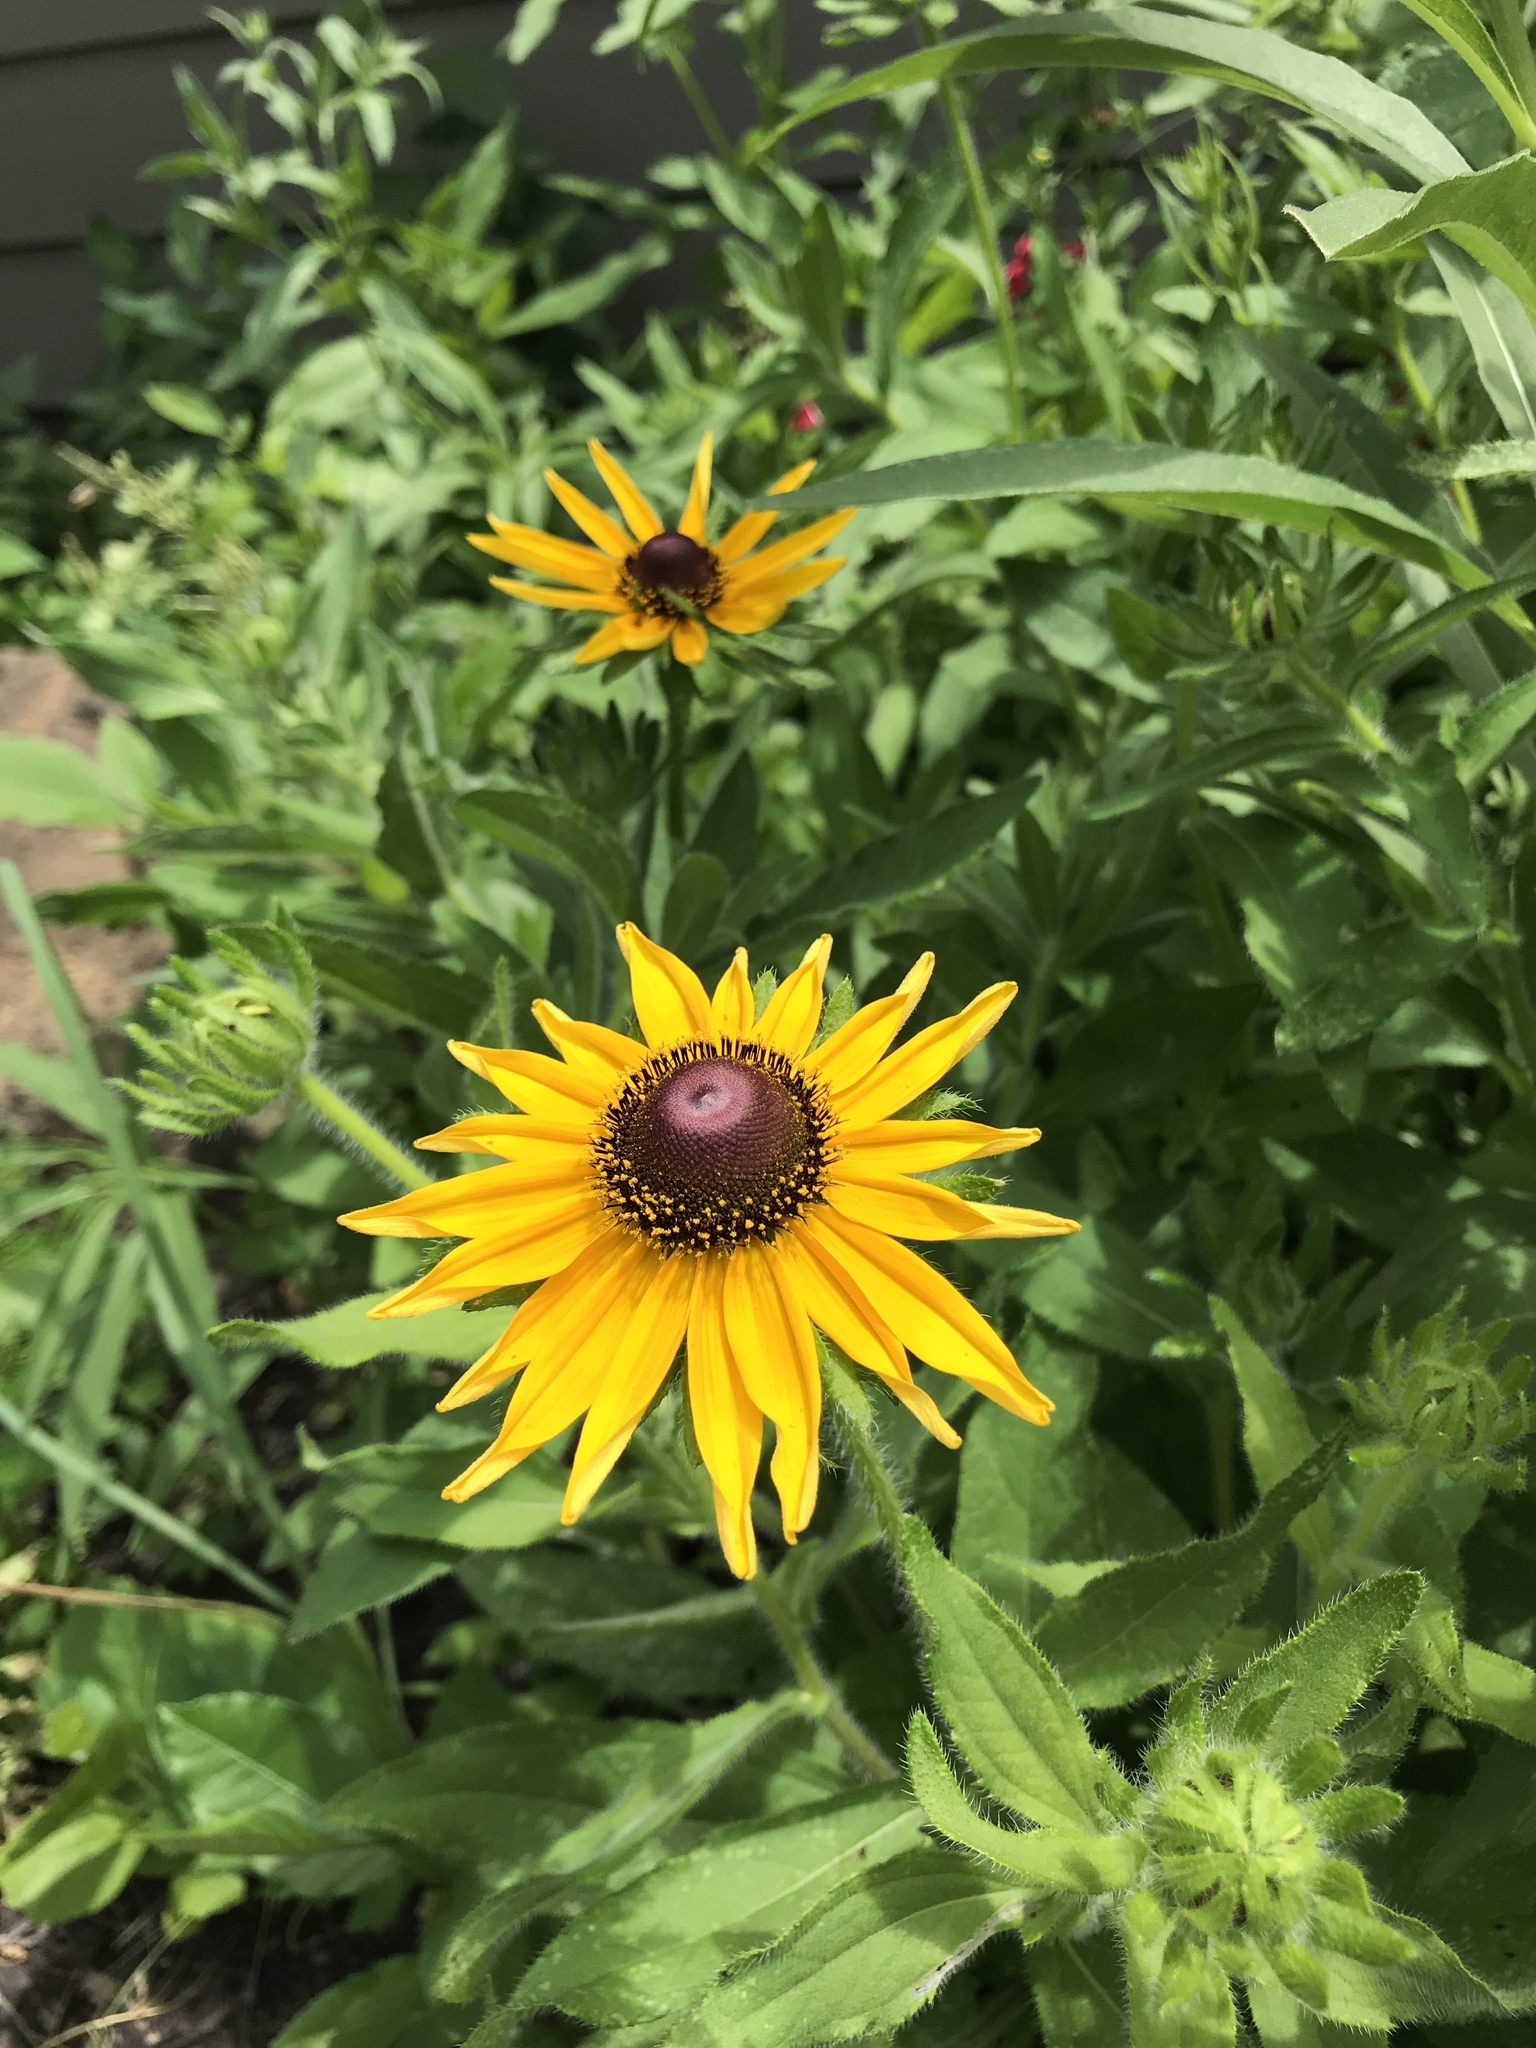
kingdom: Plantae
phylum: Tracheophyta
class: Magnoliopsida
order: Asterales
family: Asteraceae
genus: Rudbeckia
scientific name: Rudbeckia hirta
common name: Black-eyed-susan
